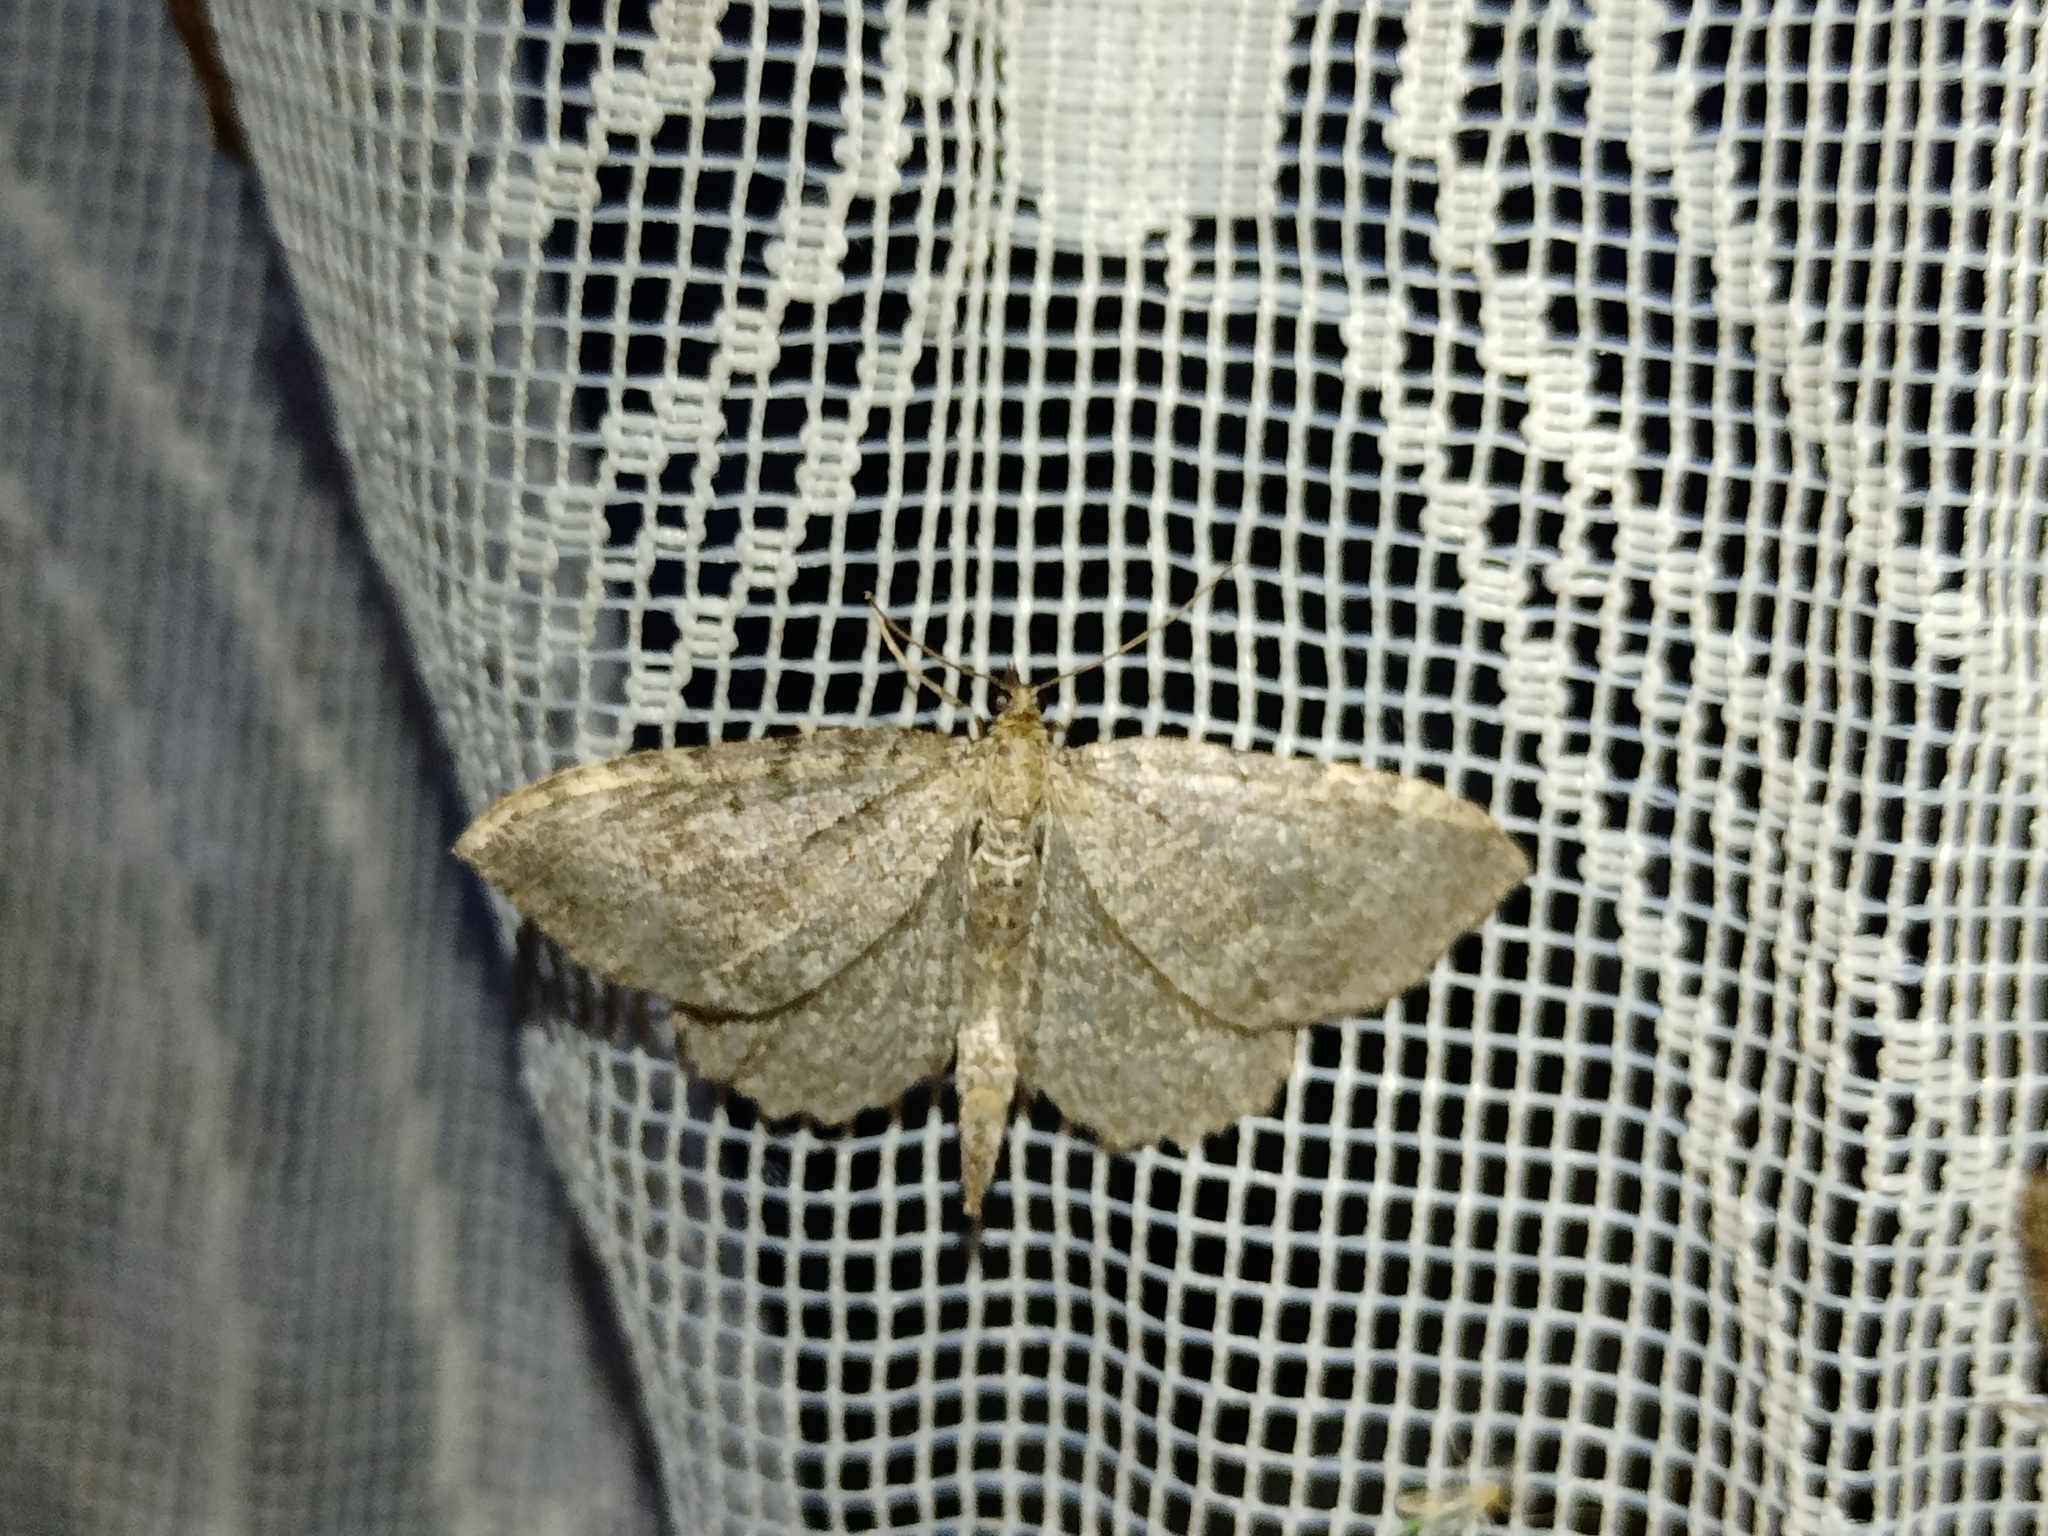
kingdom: Animalia
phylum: Arthropoda
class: Insecta
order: Lepidoptera
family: Geometridae
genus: Philereme
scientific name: Philereme vetulata
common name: Brown scallop
